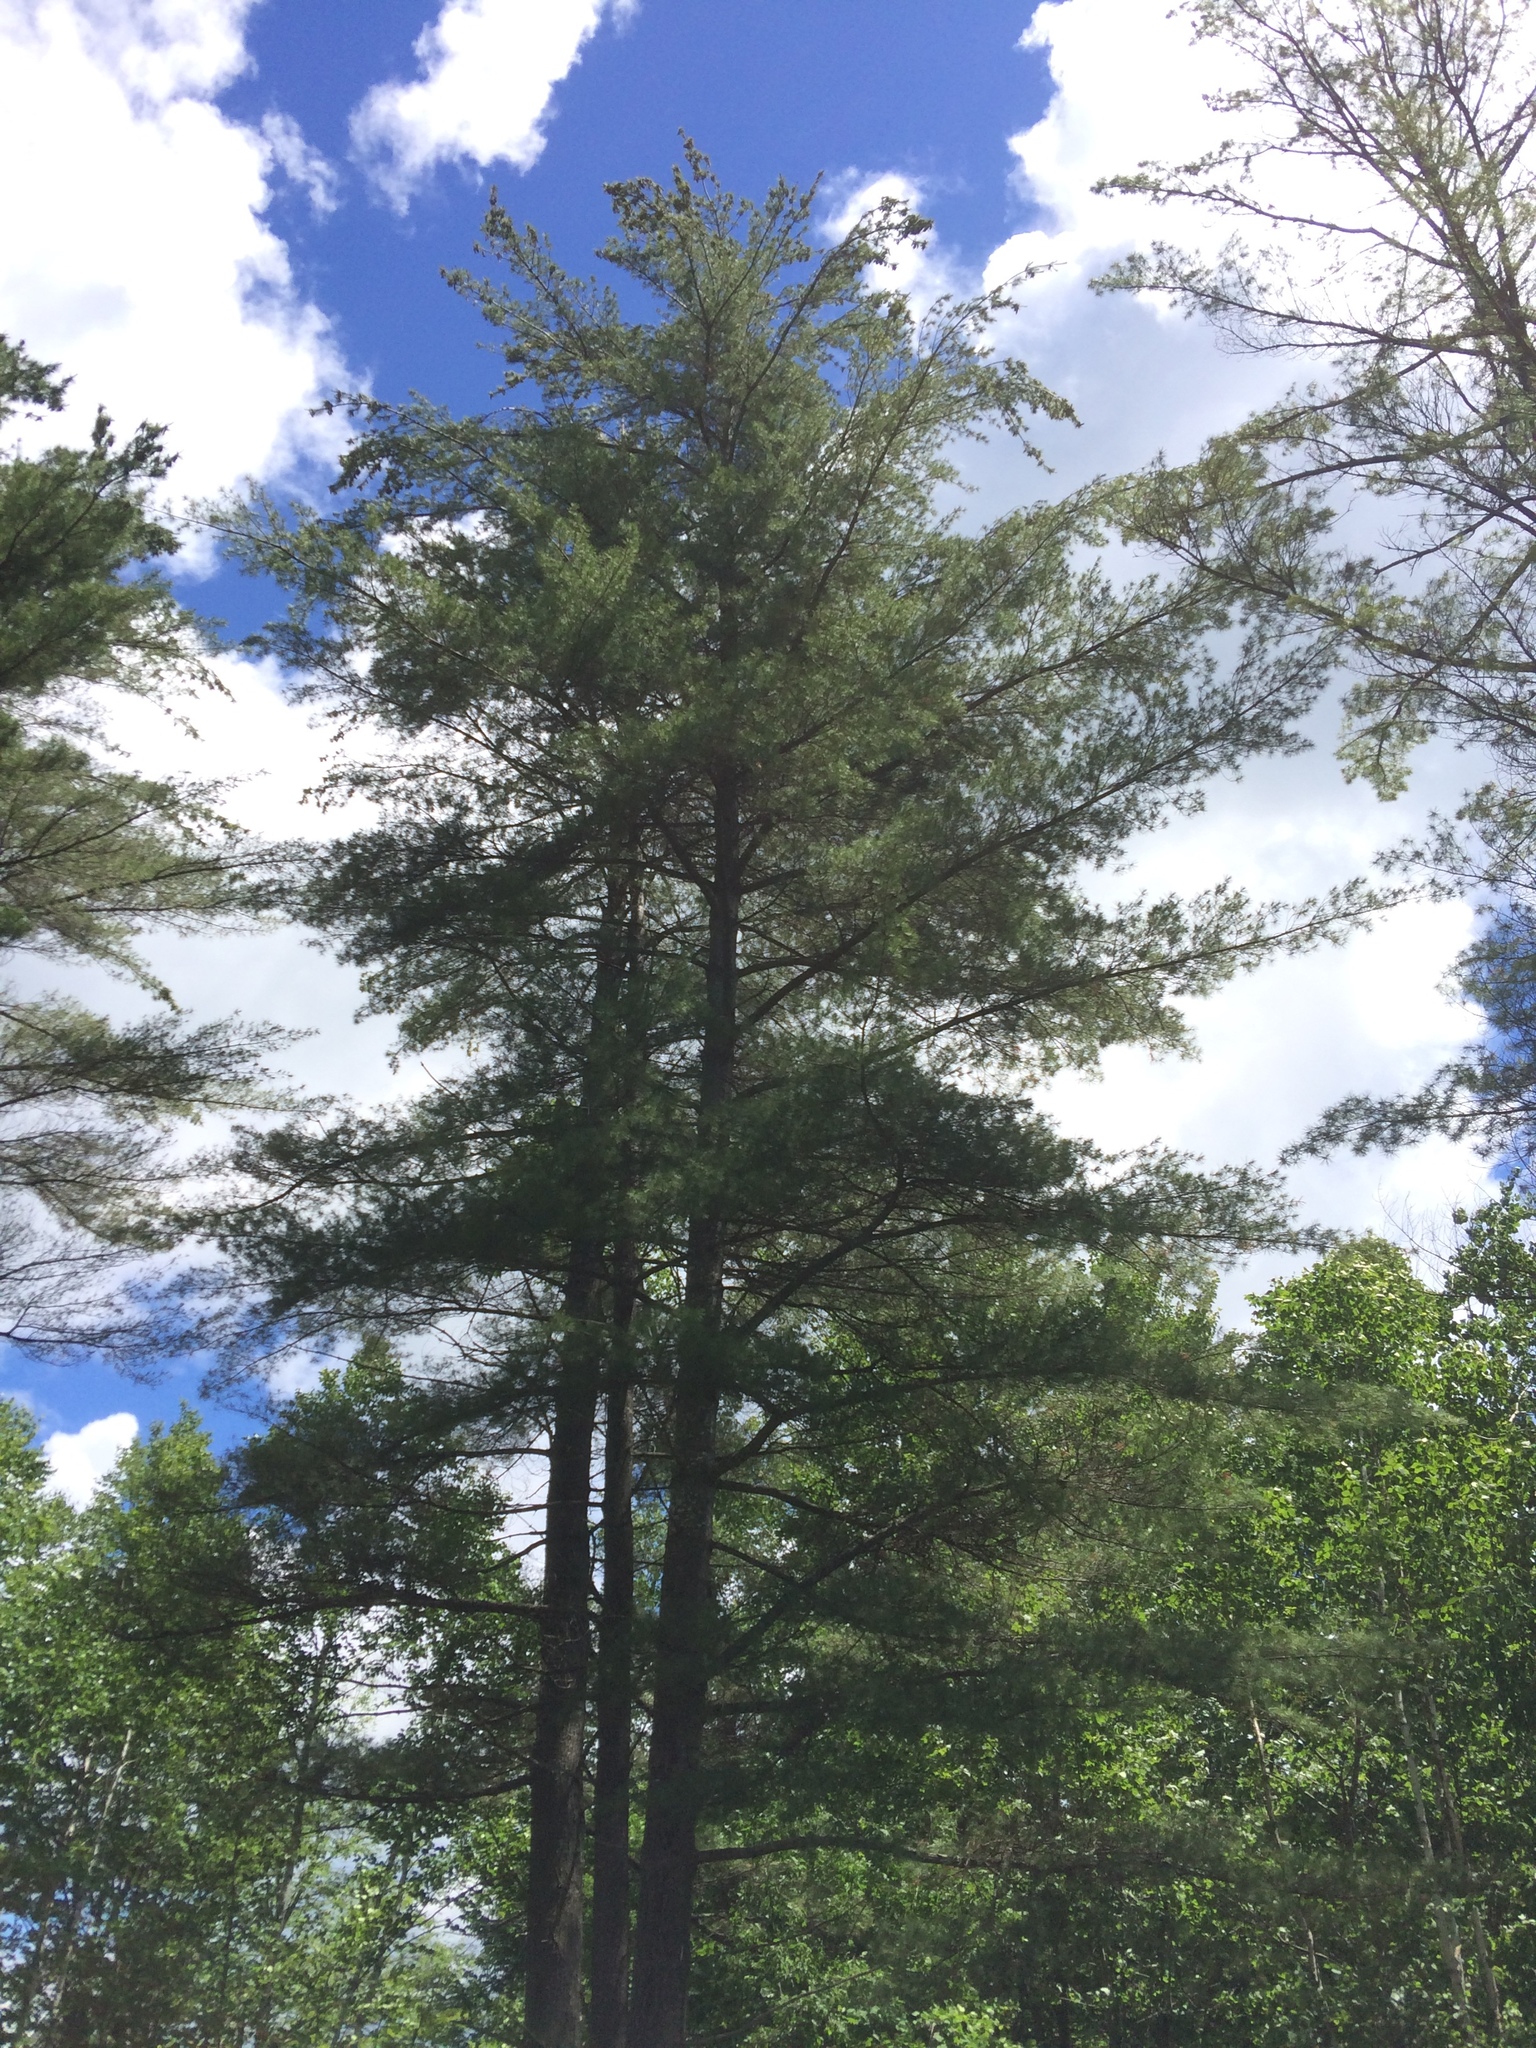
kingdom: Plantae
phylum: Tracheophyta
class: Pinopsida
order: Pinales
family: Pinaceae
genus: Pinus
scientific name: Pinus strobus
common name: Weymouth pine
